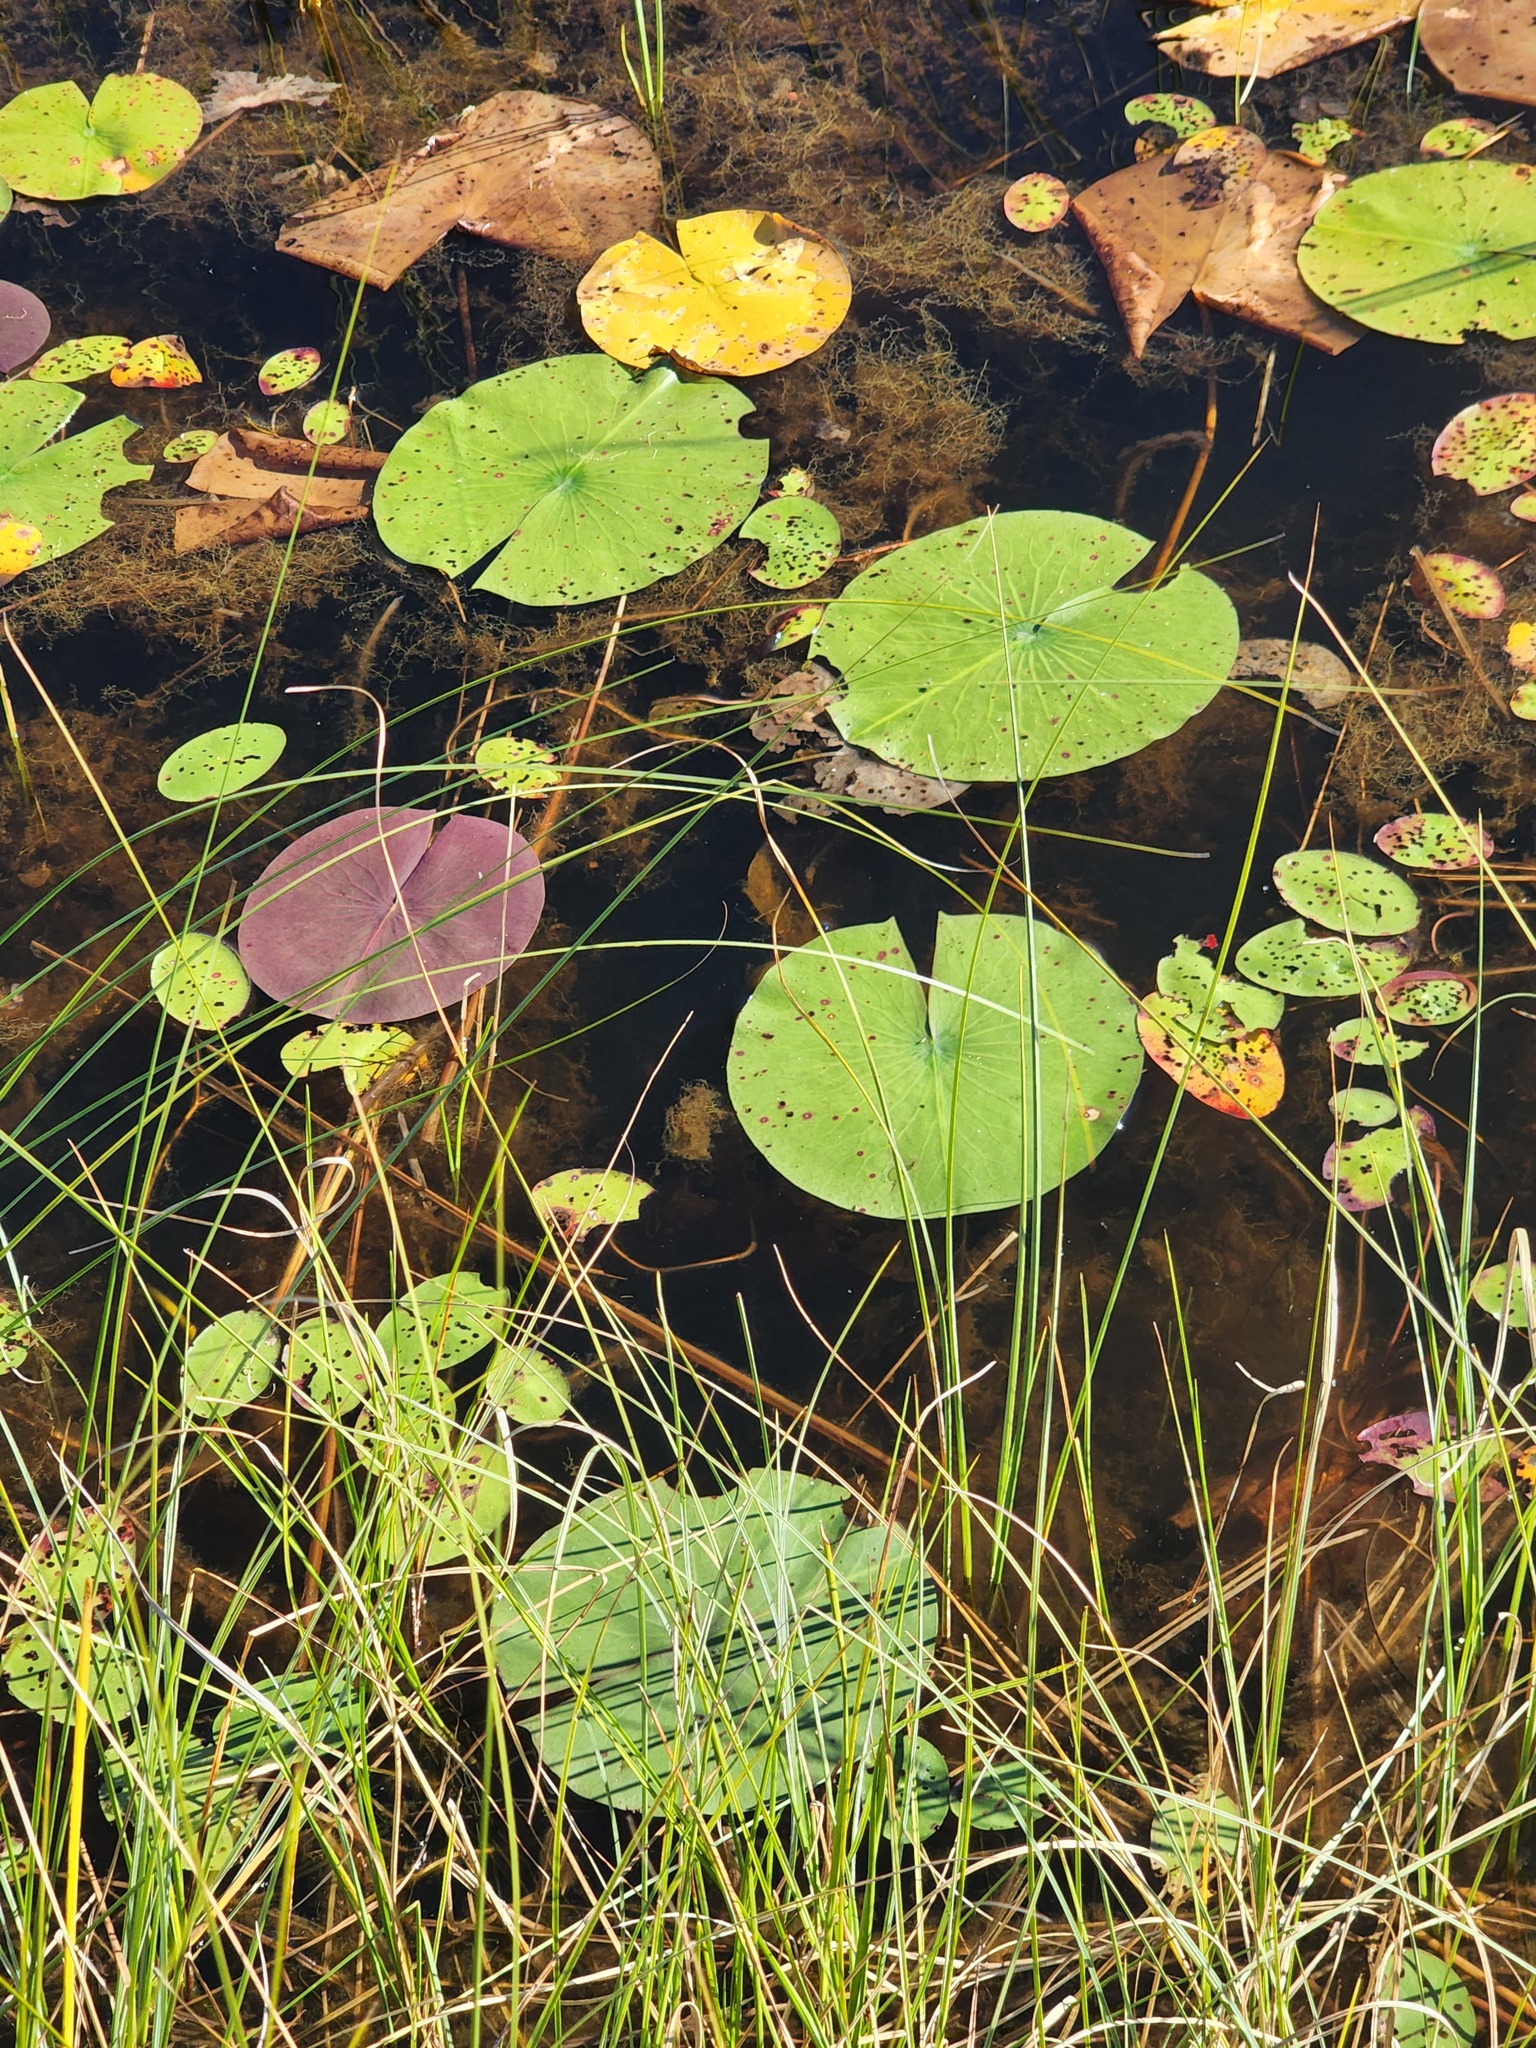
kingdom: Plantae
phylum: Tracheophyta
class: Magnoliopsida
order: Nymphaeales
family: Nymphaeaceae
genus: Nymphaea
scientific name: Nymphaea odorata
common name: Fragrant water-lily
